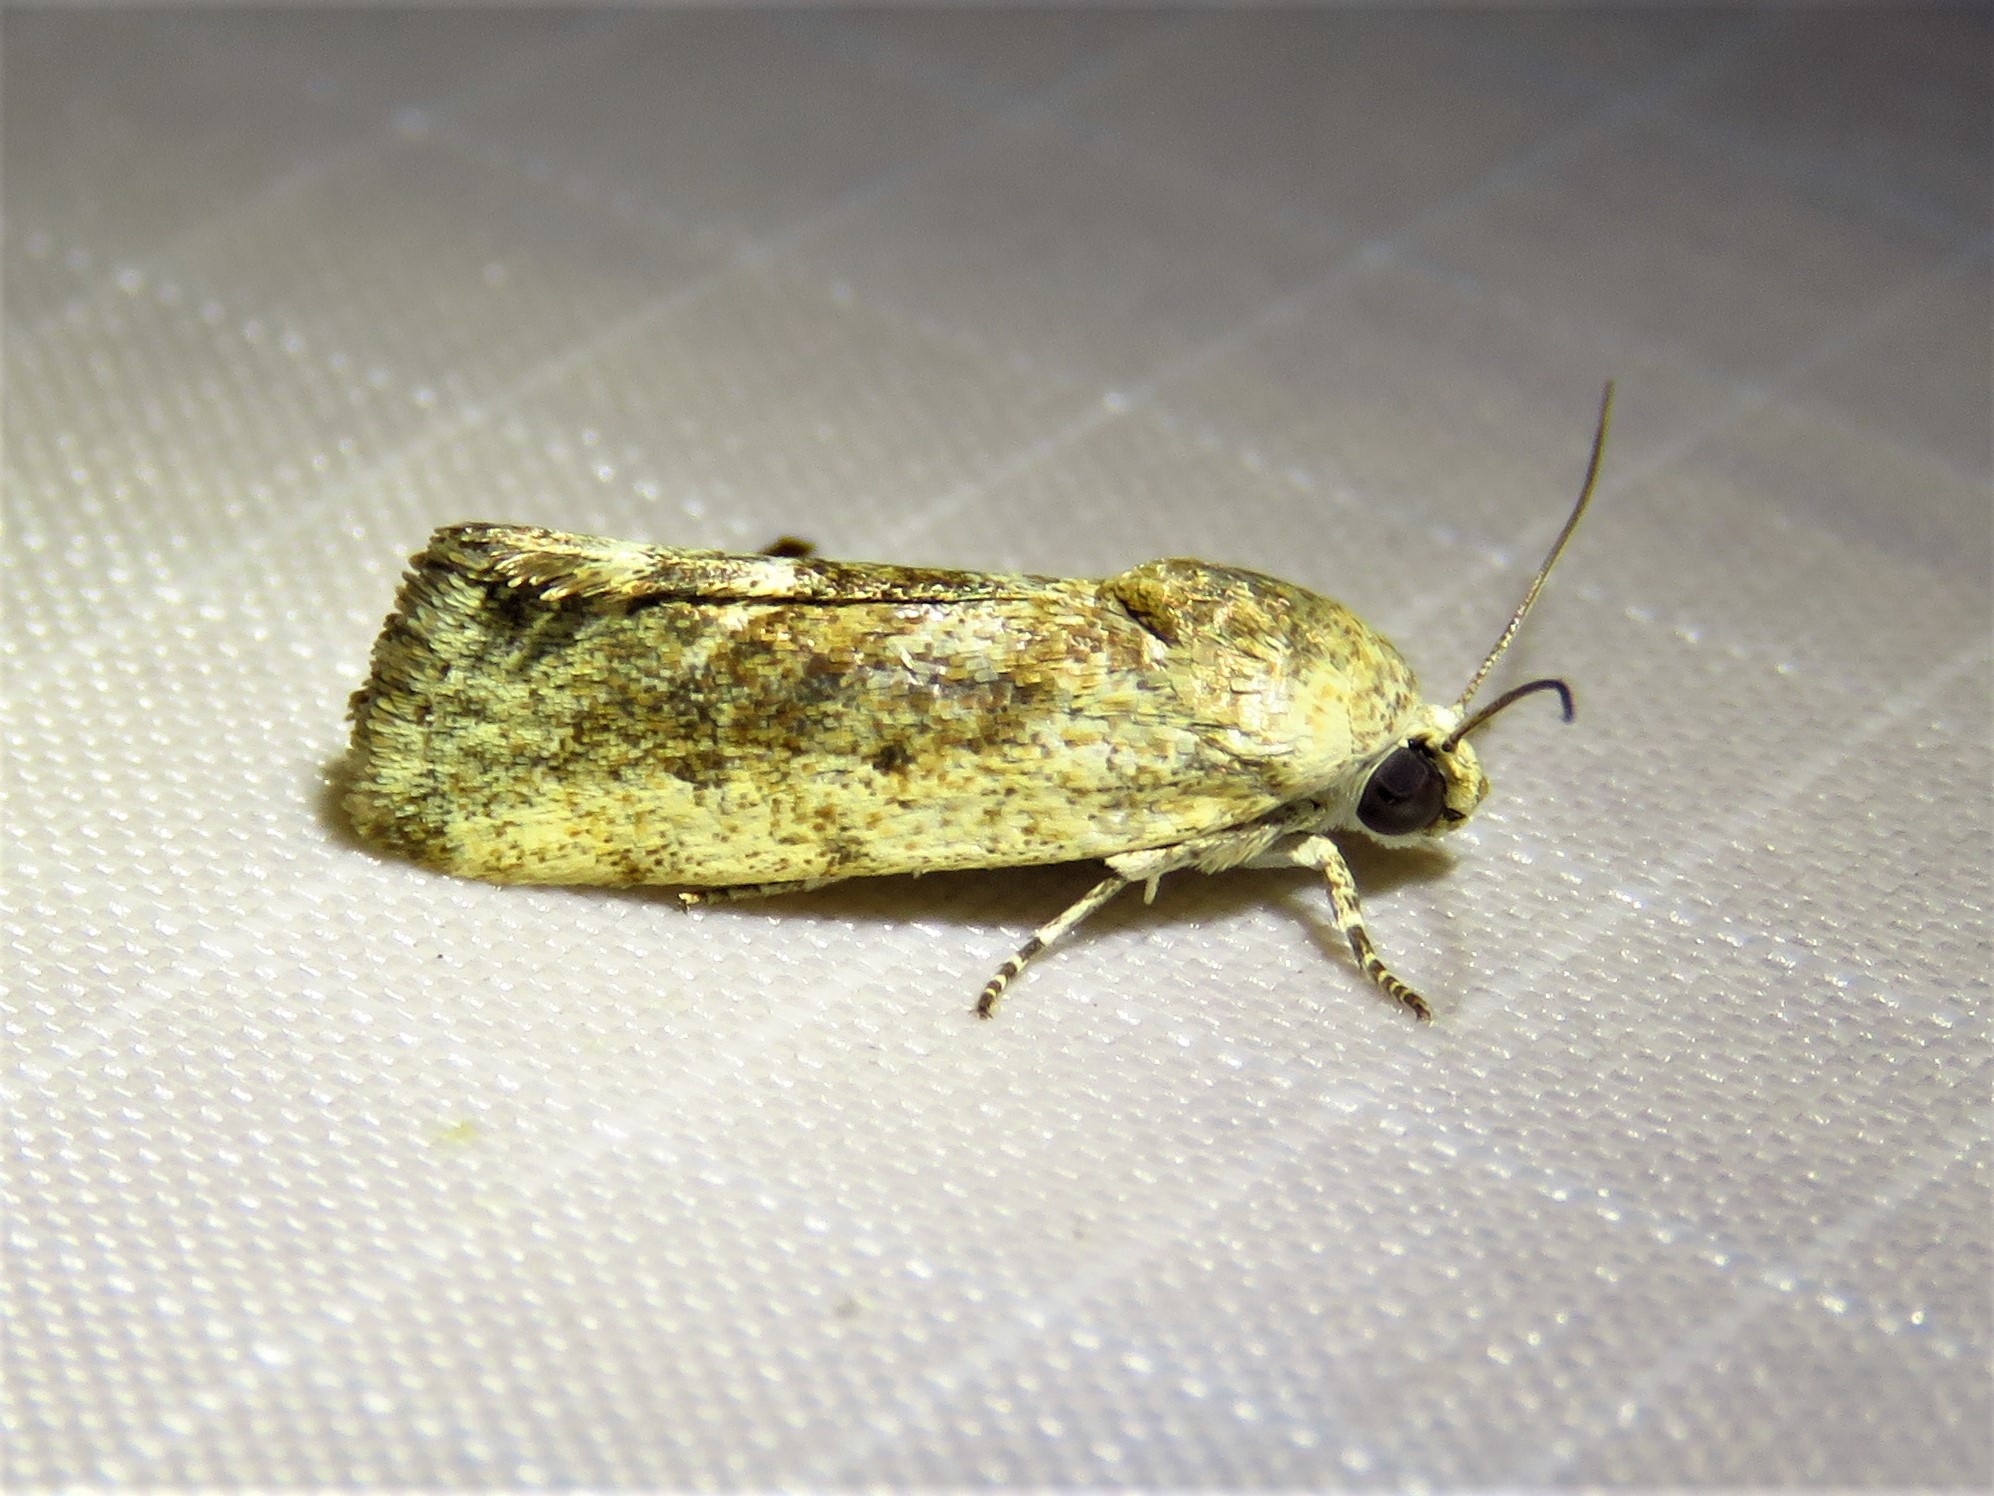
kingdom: Animalia
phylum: Arthropoda
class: Insecta
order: Lepidoptera
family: Noctuidae
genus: Acontia
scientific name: Acontia fasciatella
